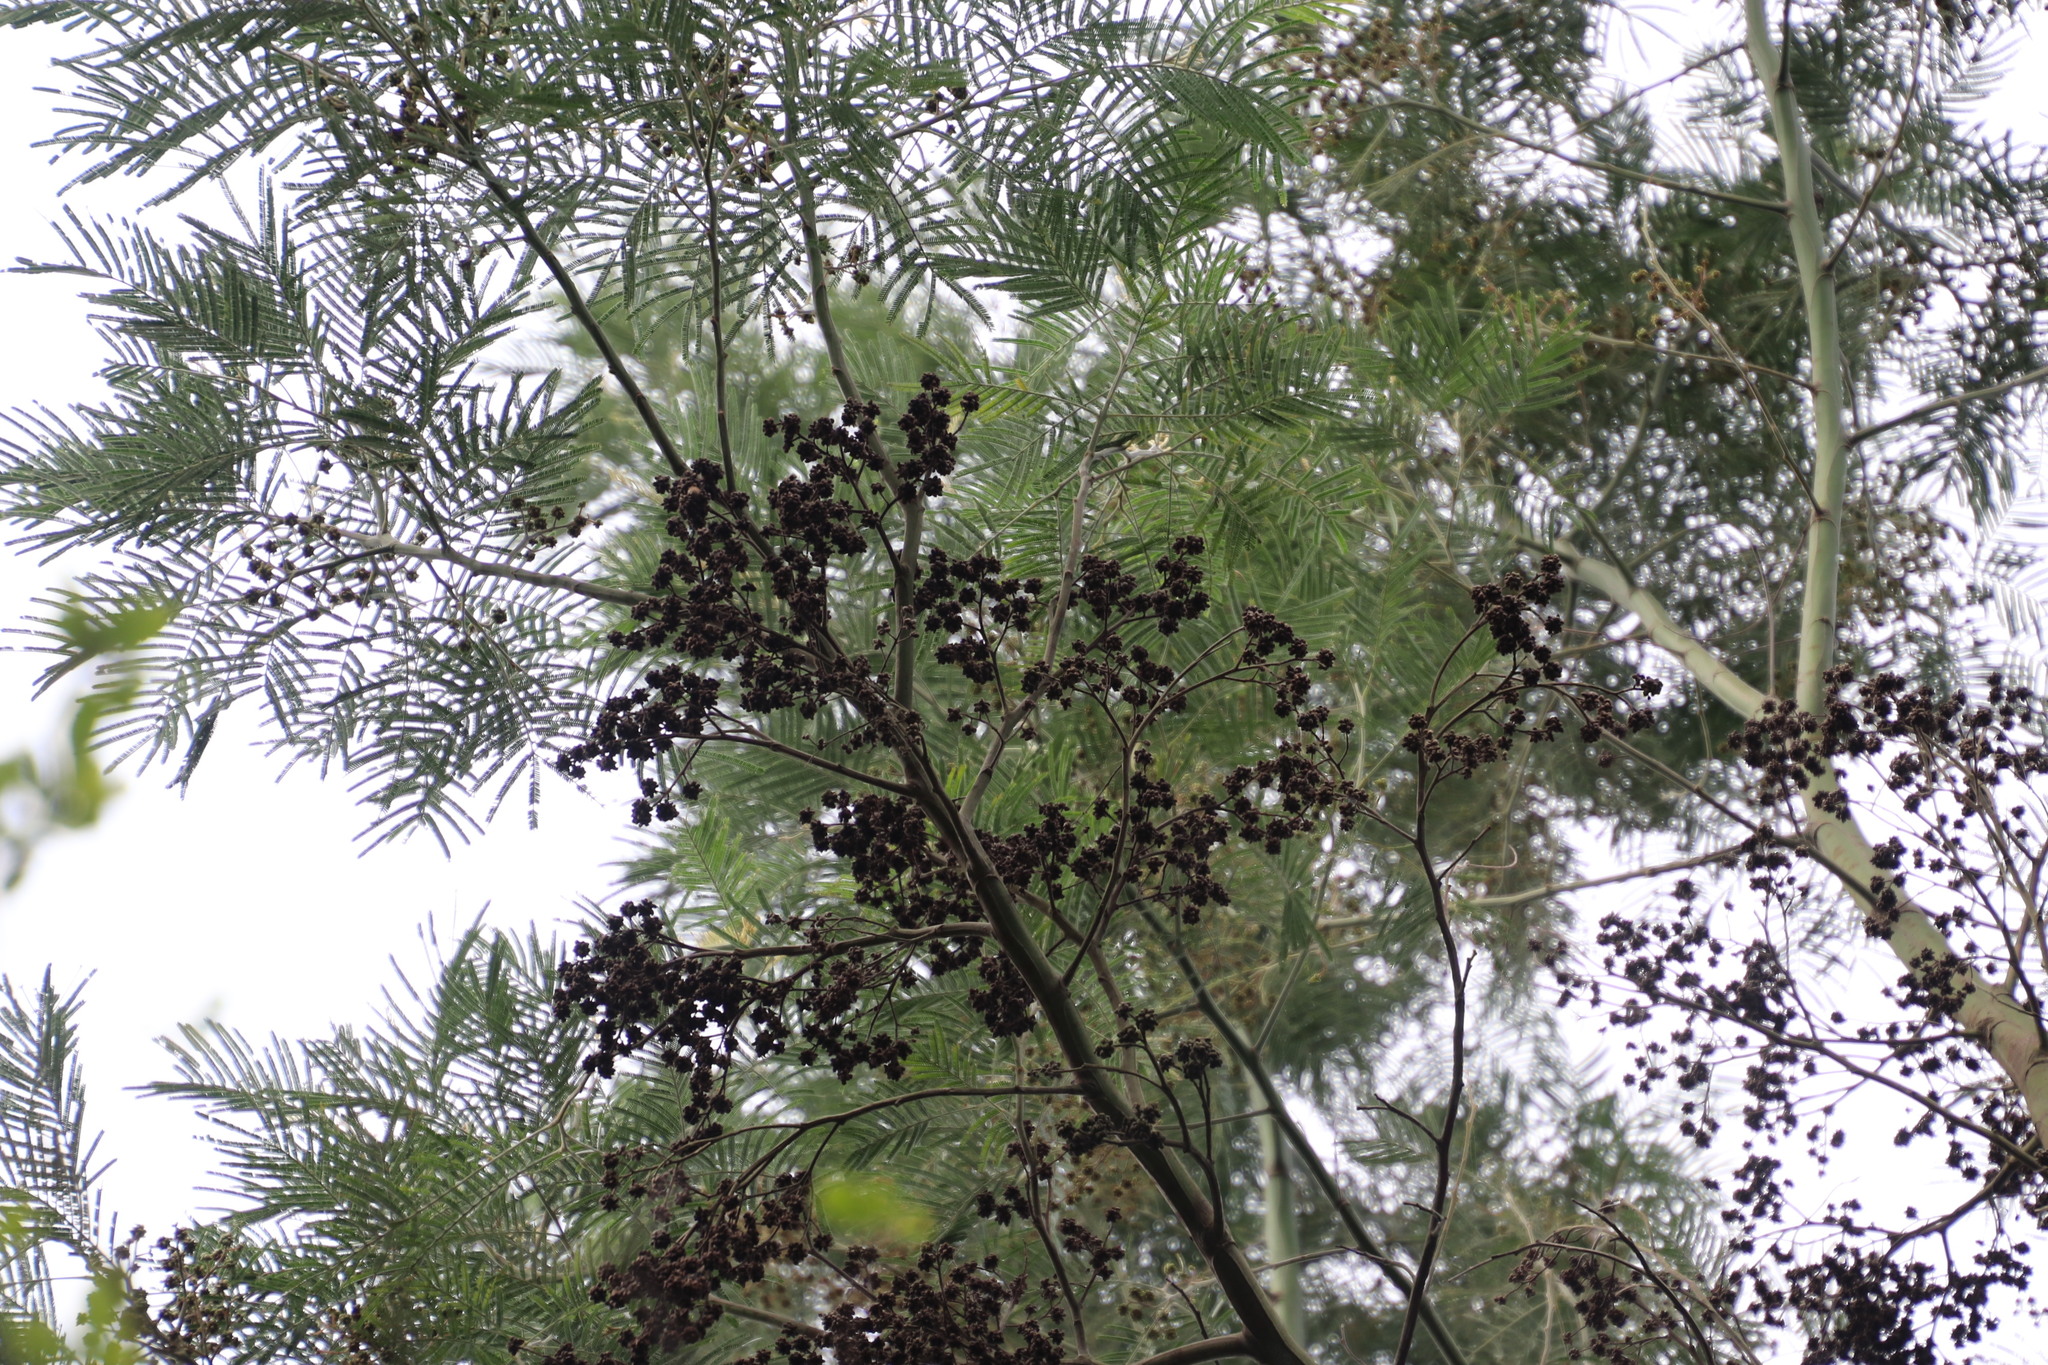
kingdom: Animalia
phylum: Arthropoda
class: Insecta
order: Diptera
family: Cecidomyiidae
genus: Dasineura
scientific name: Dasineura rubiformis
